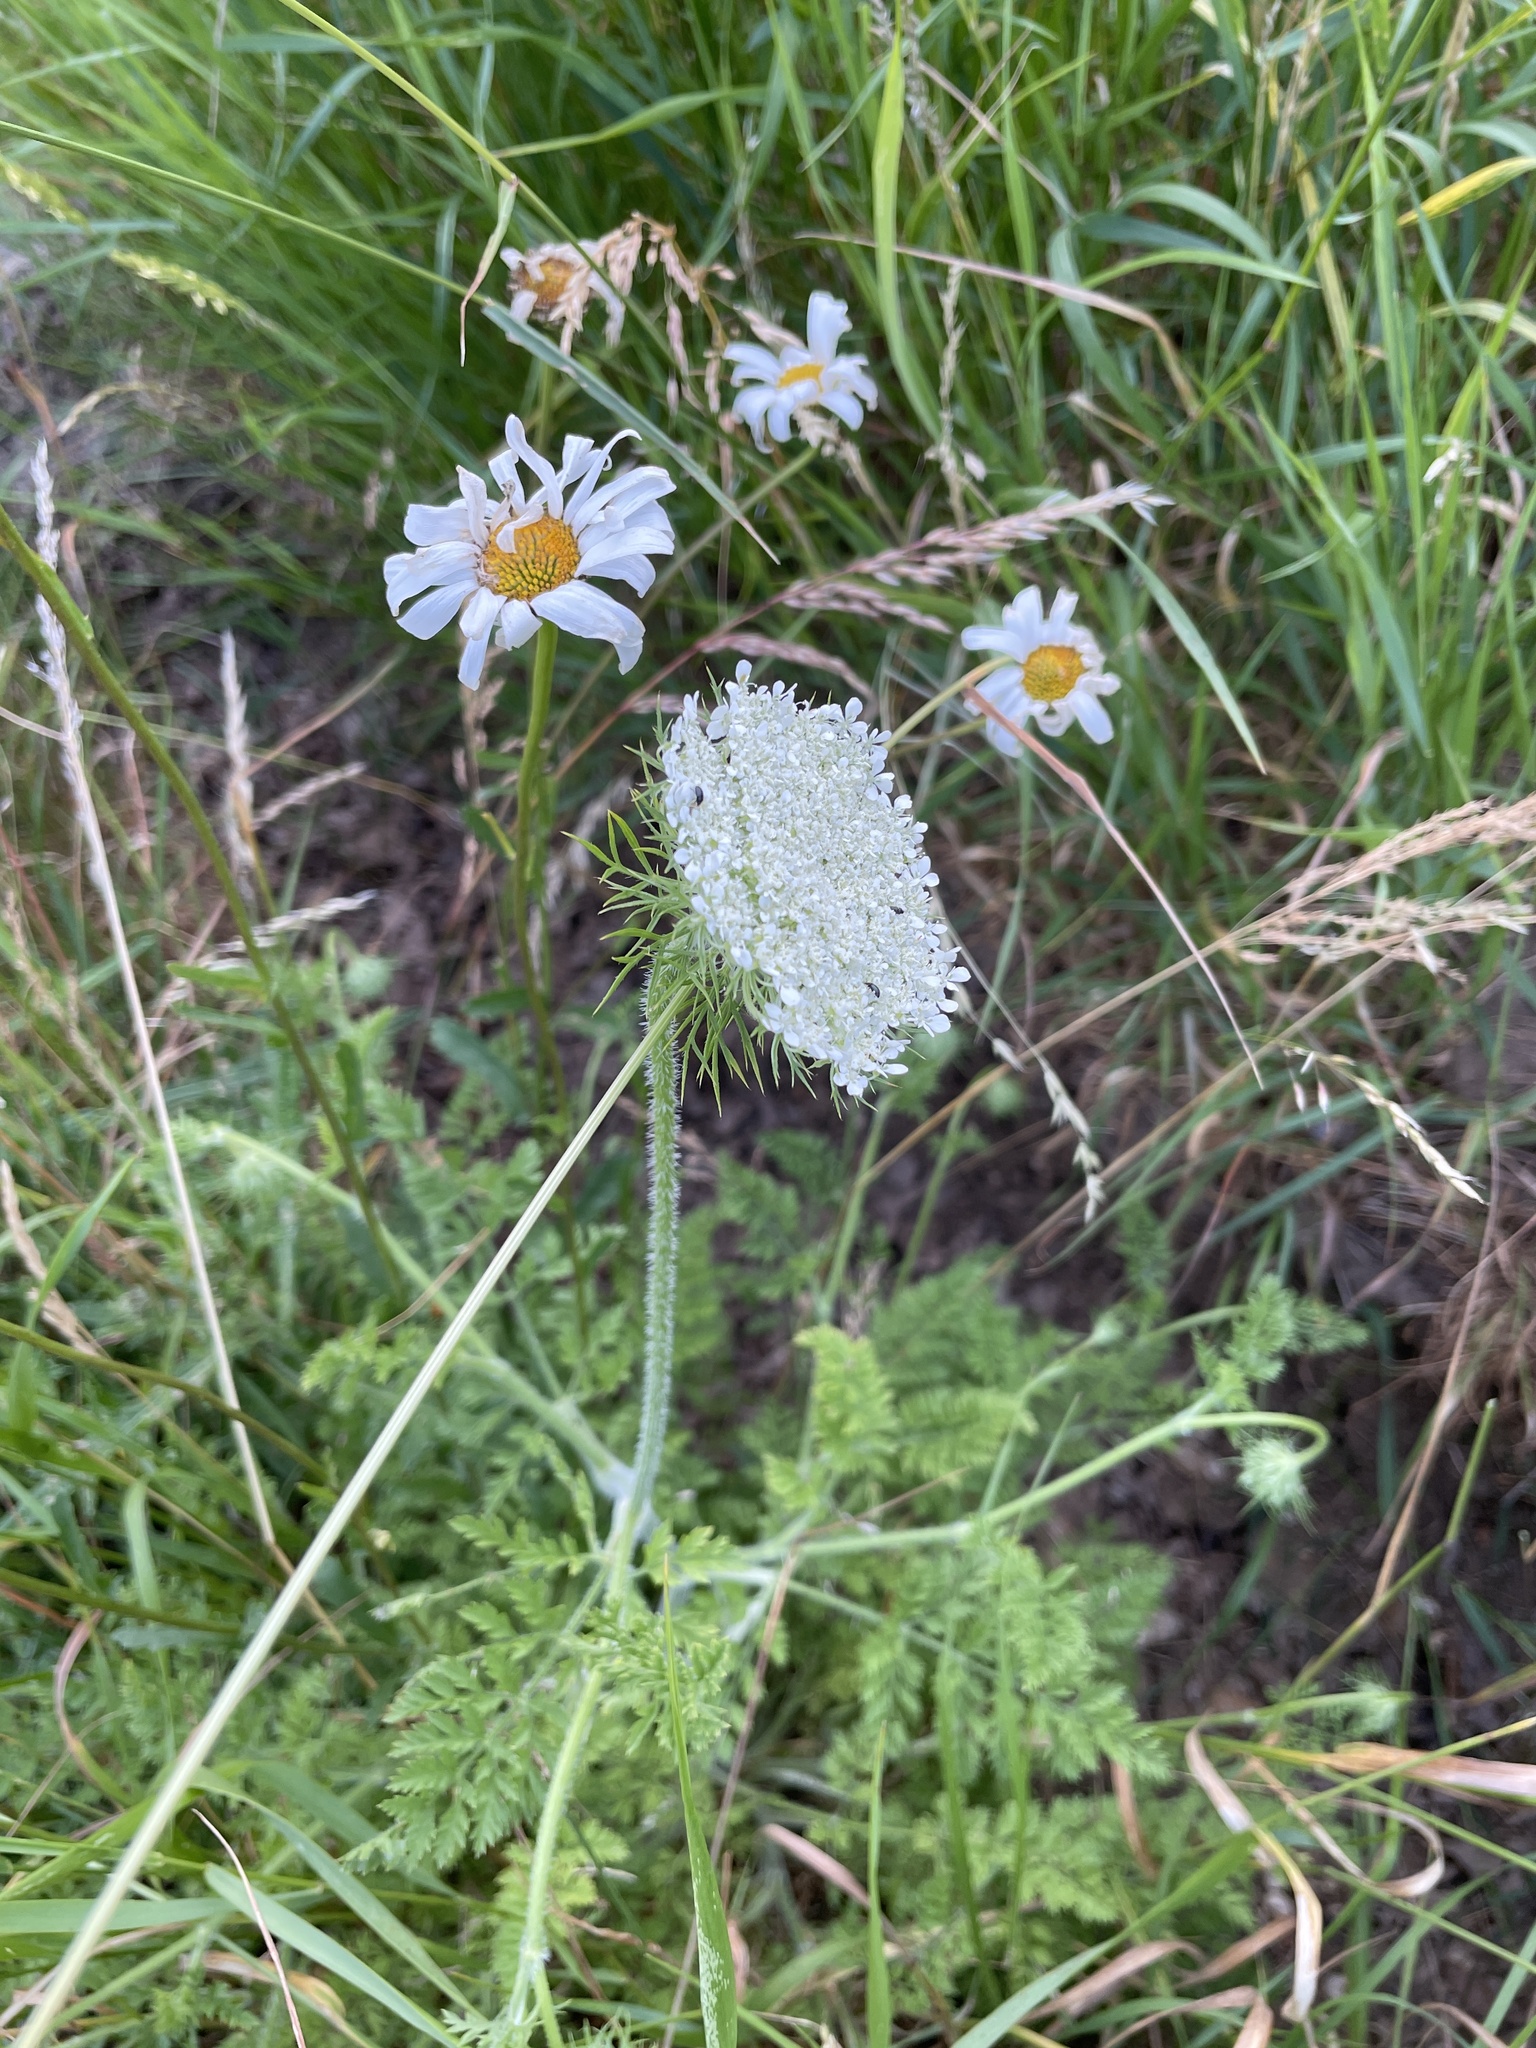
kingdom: Plantae
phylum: Tracheophyta
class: Magnoliopsida
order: Apiales
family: Apiaceae
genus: Daucus
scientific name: Daucus carota
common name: Wild carrot
